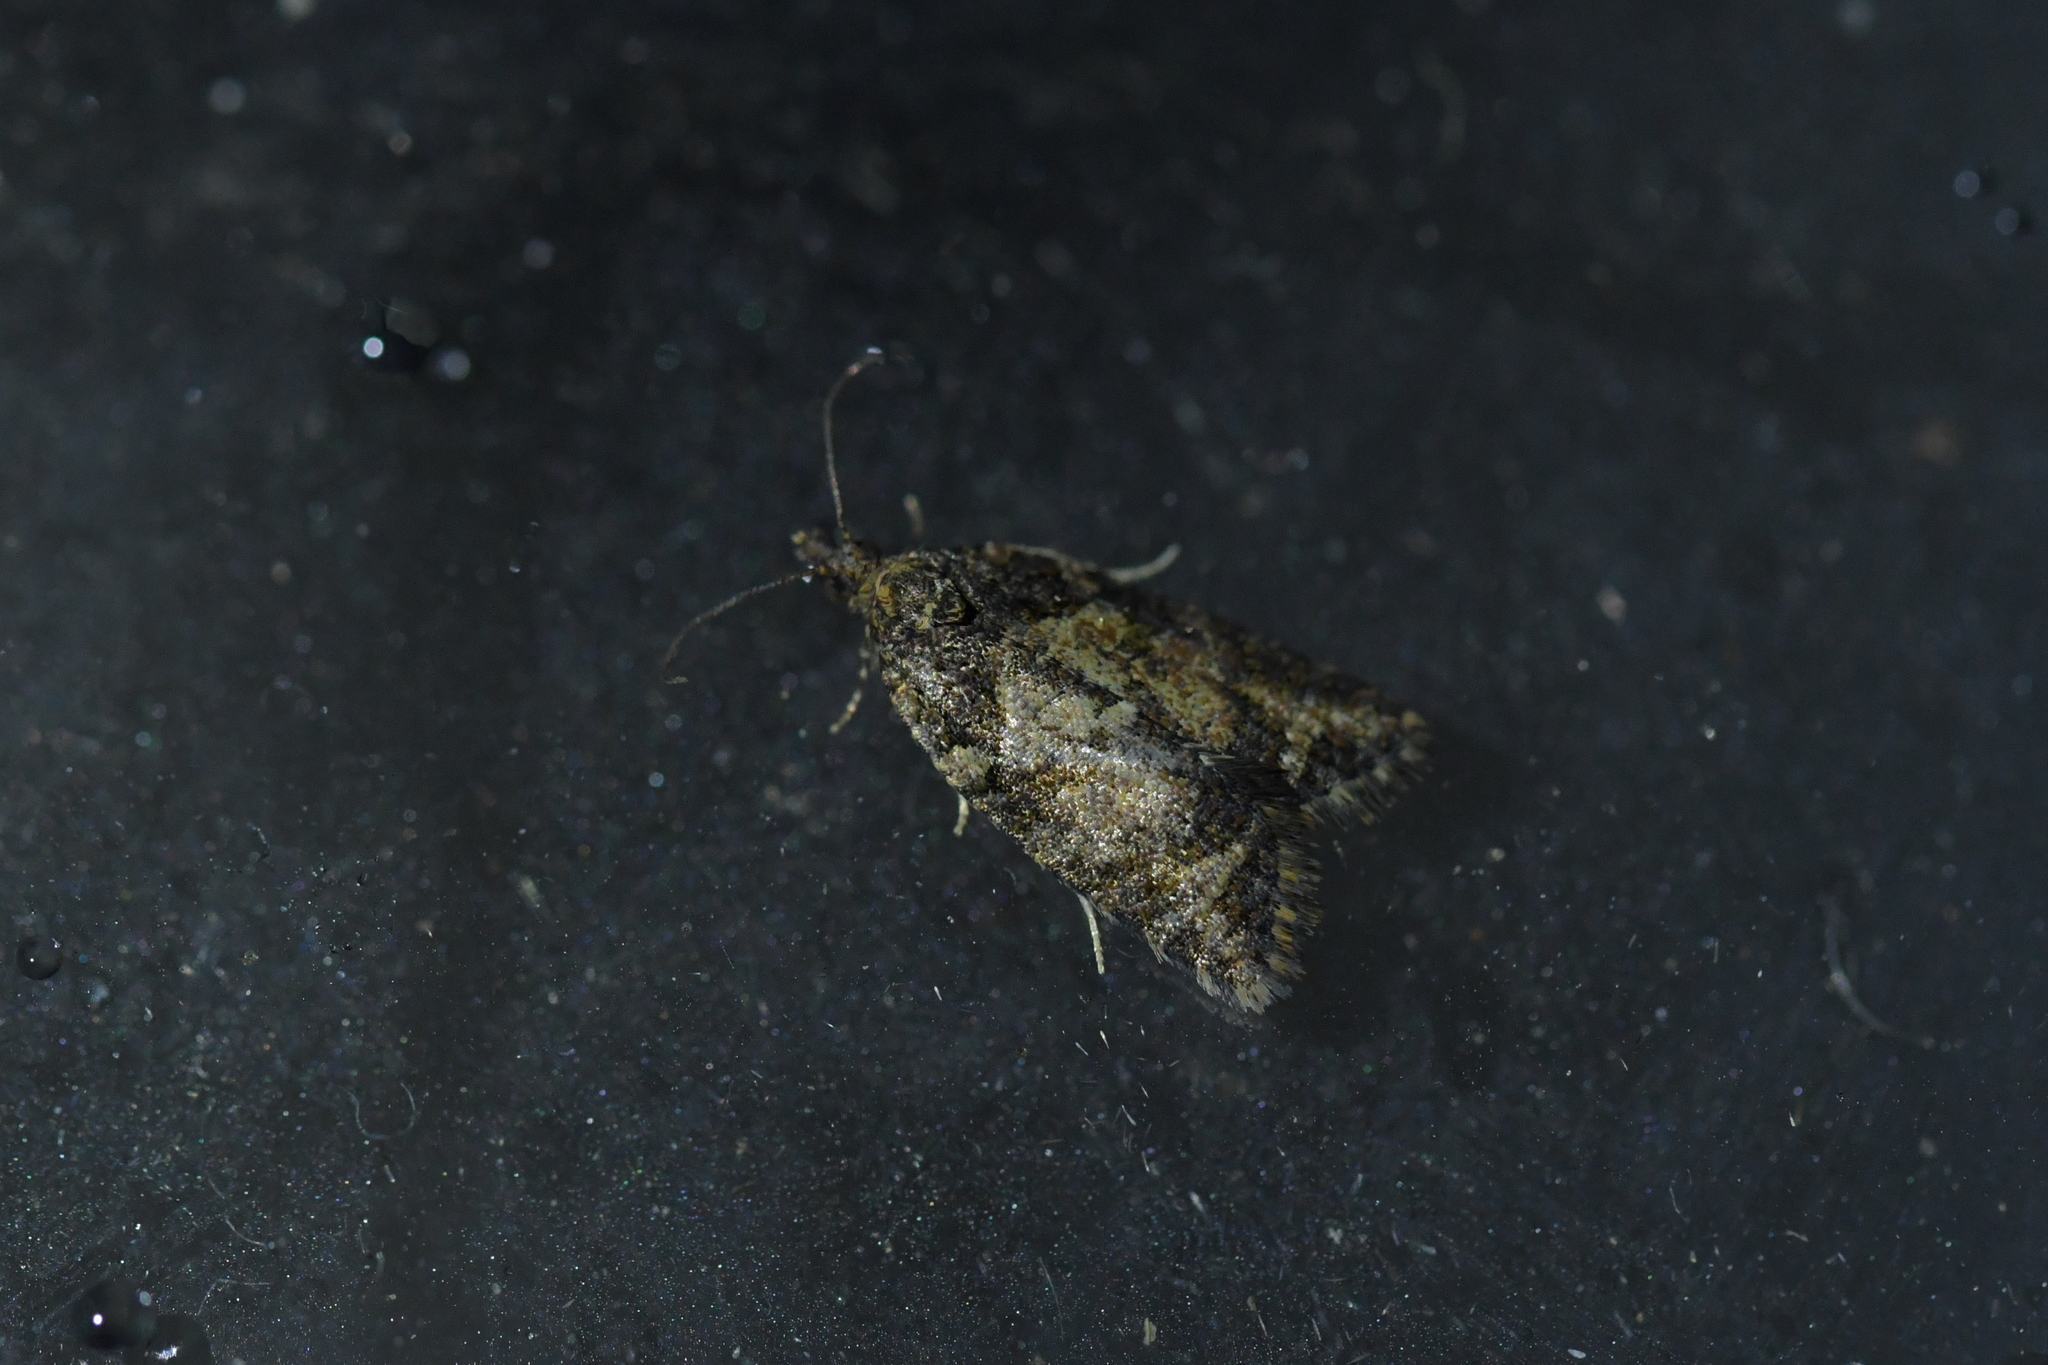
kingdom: Animalia
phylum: Arthropoda
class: Insecta
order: Lepidoptera
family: Tortricidae
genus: Capua
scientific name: Capua intractana
